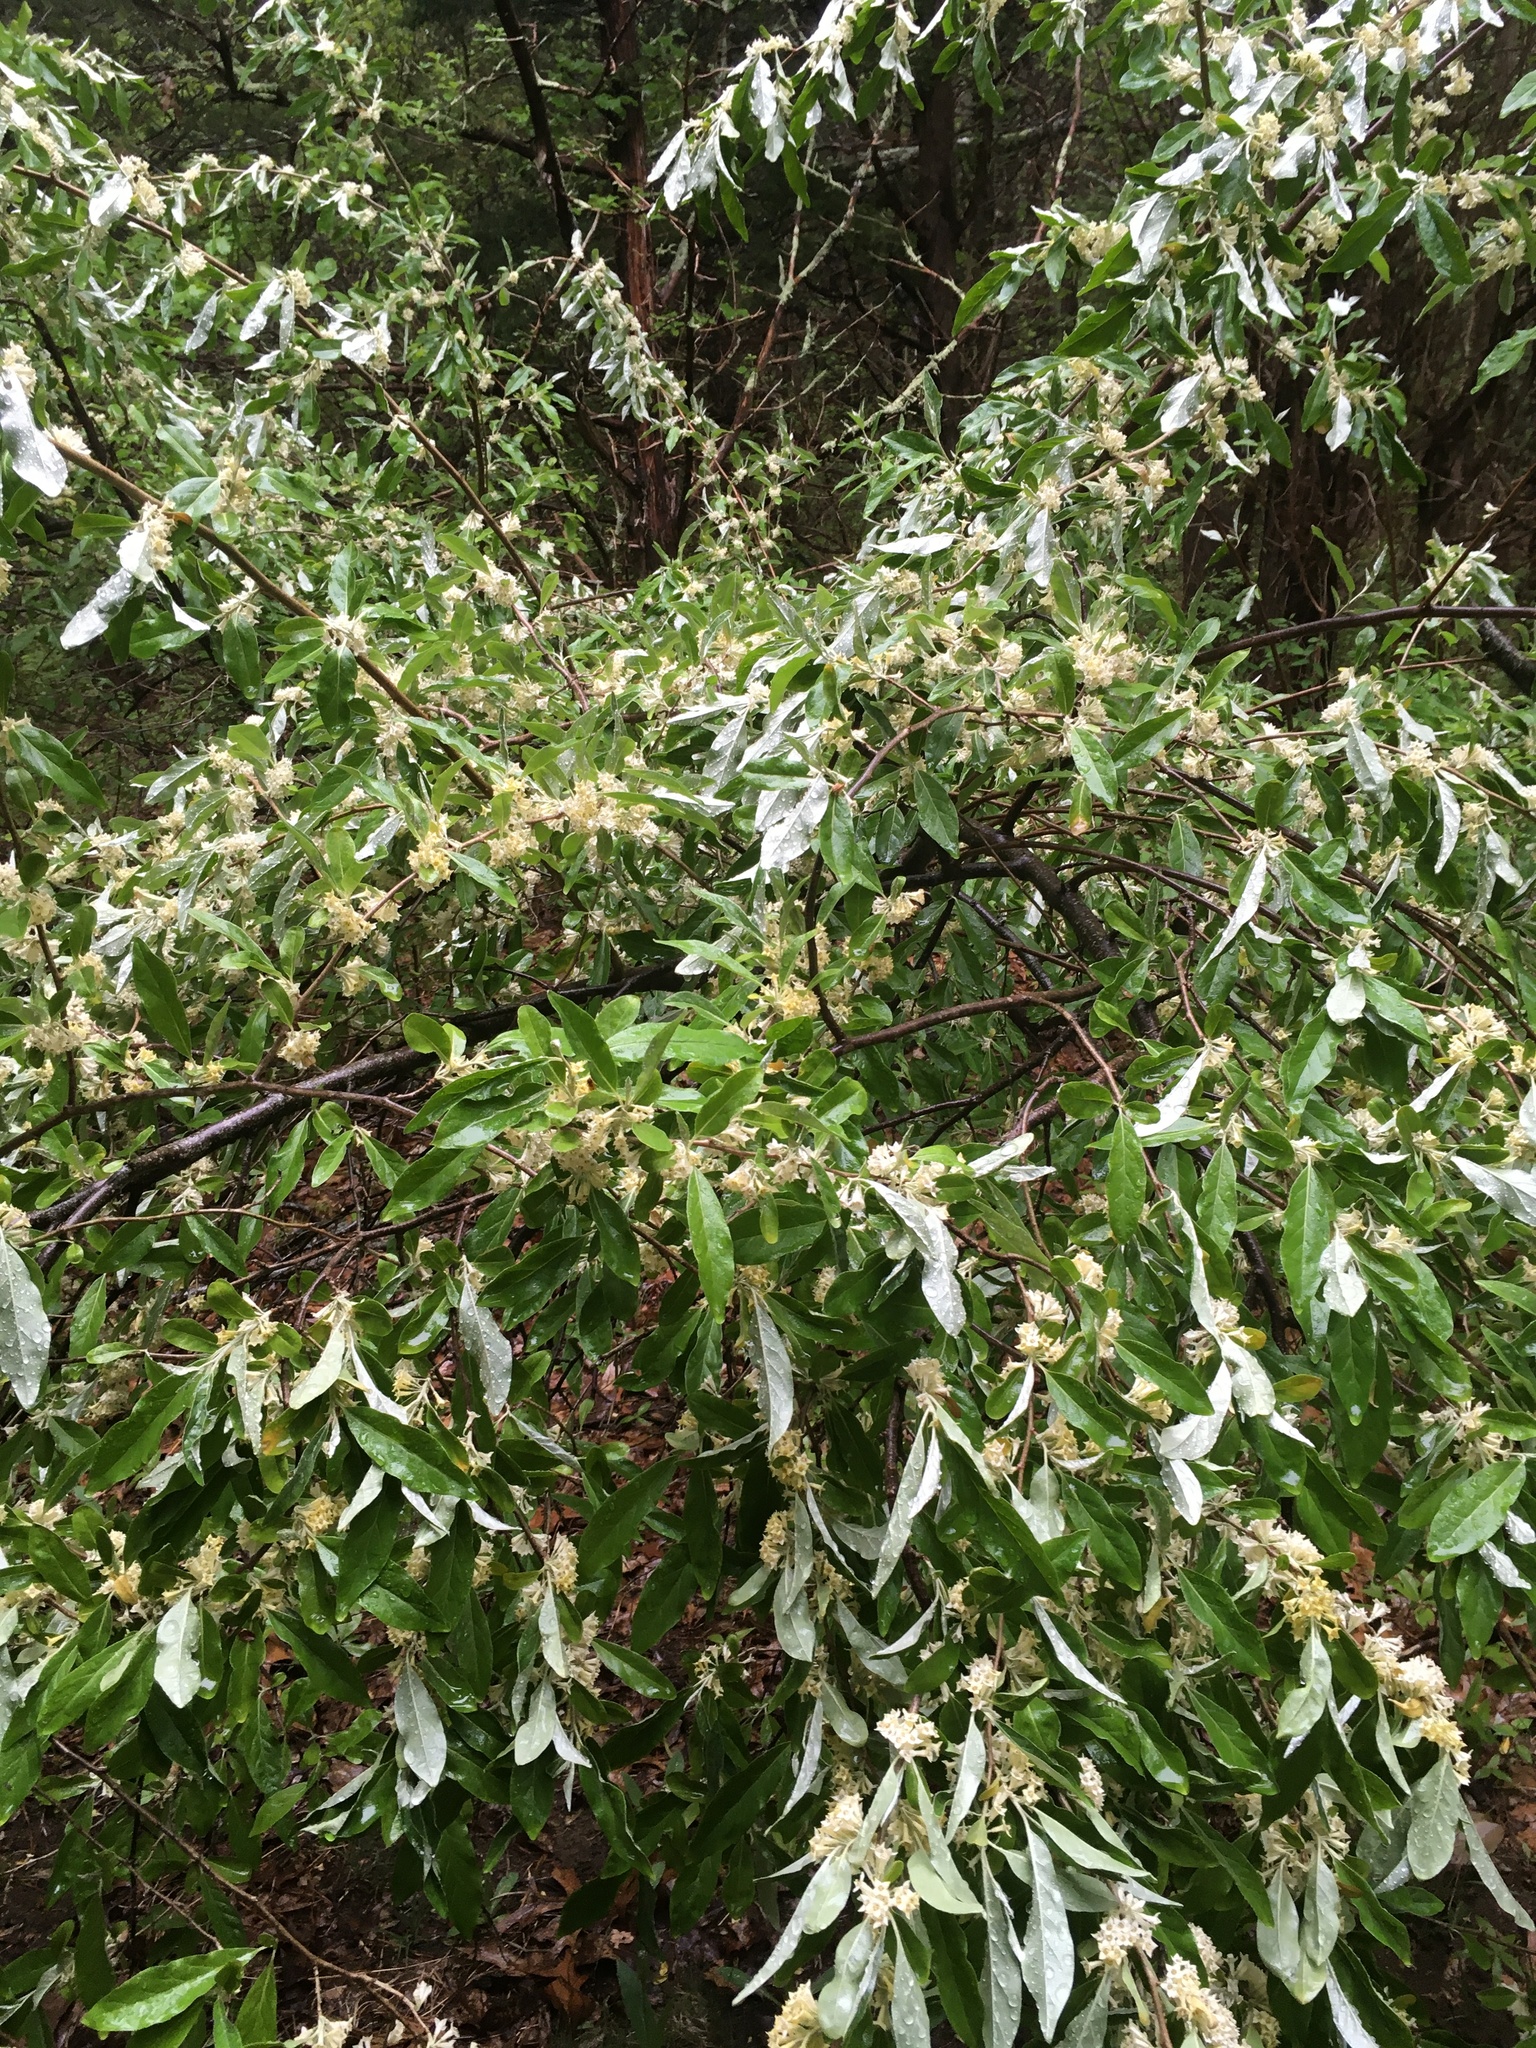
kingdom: Plantae
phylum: Tracheophyta
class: Magnoliopsida
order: Rosales
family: Elaeagnaceae
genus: Elaeagnus
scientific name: Elaeagnus umbellata
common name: Autumn olive
